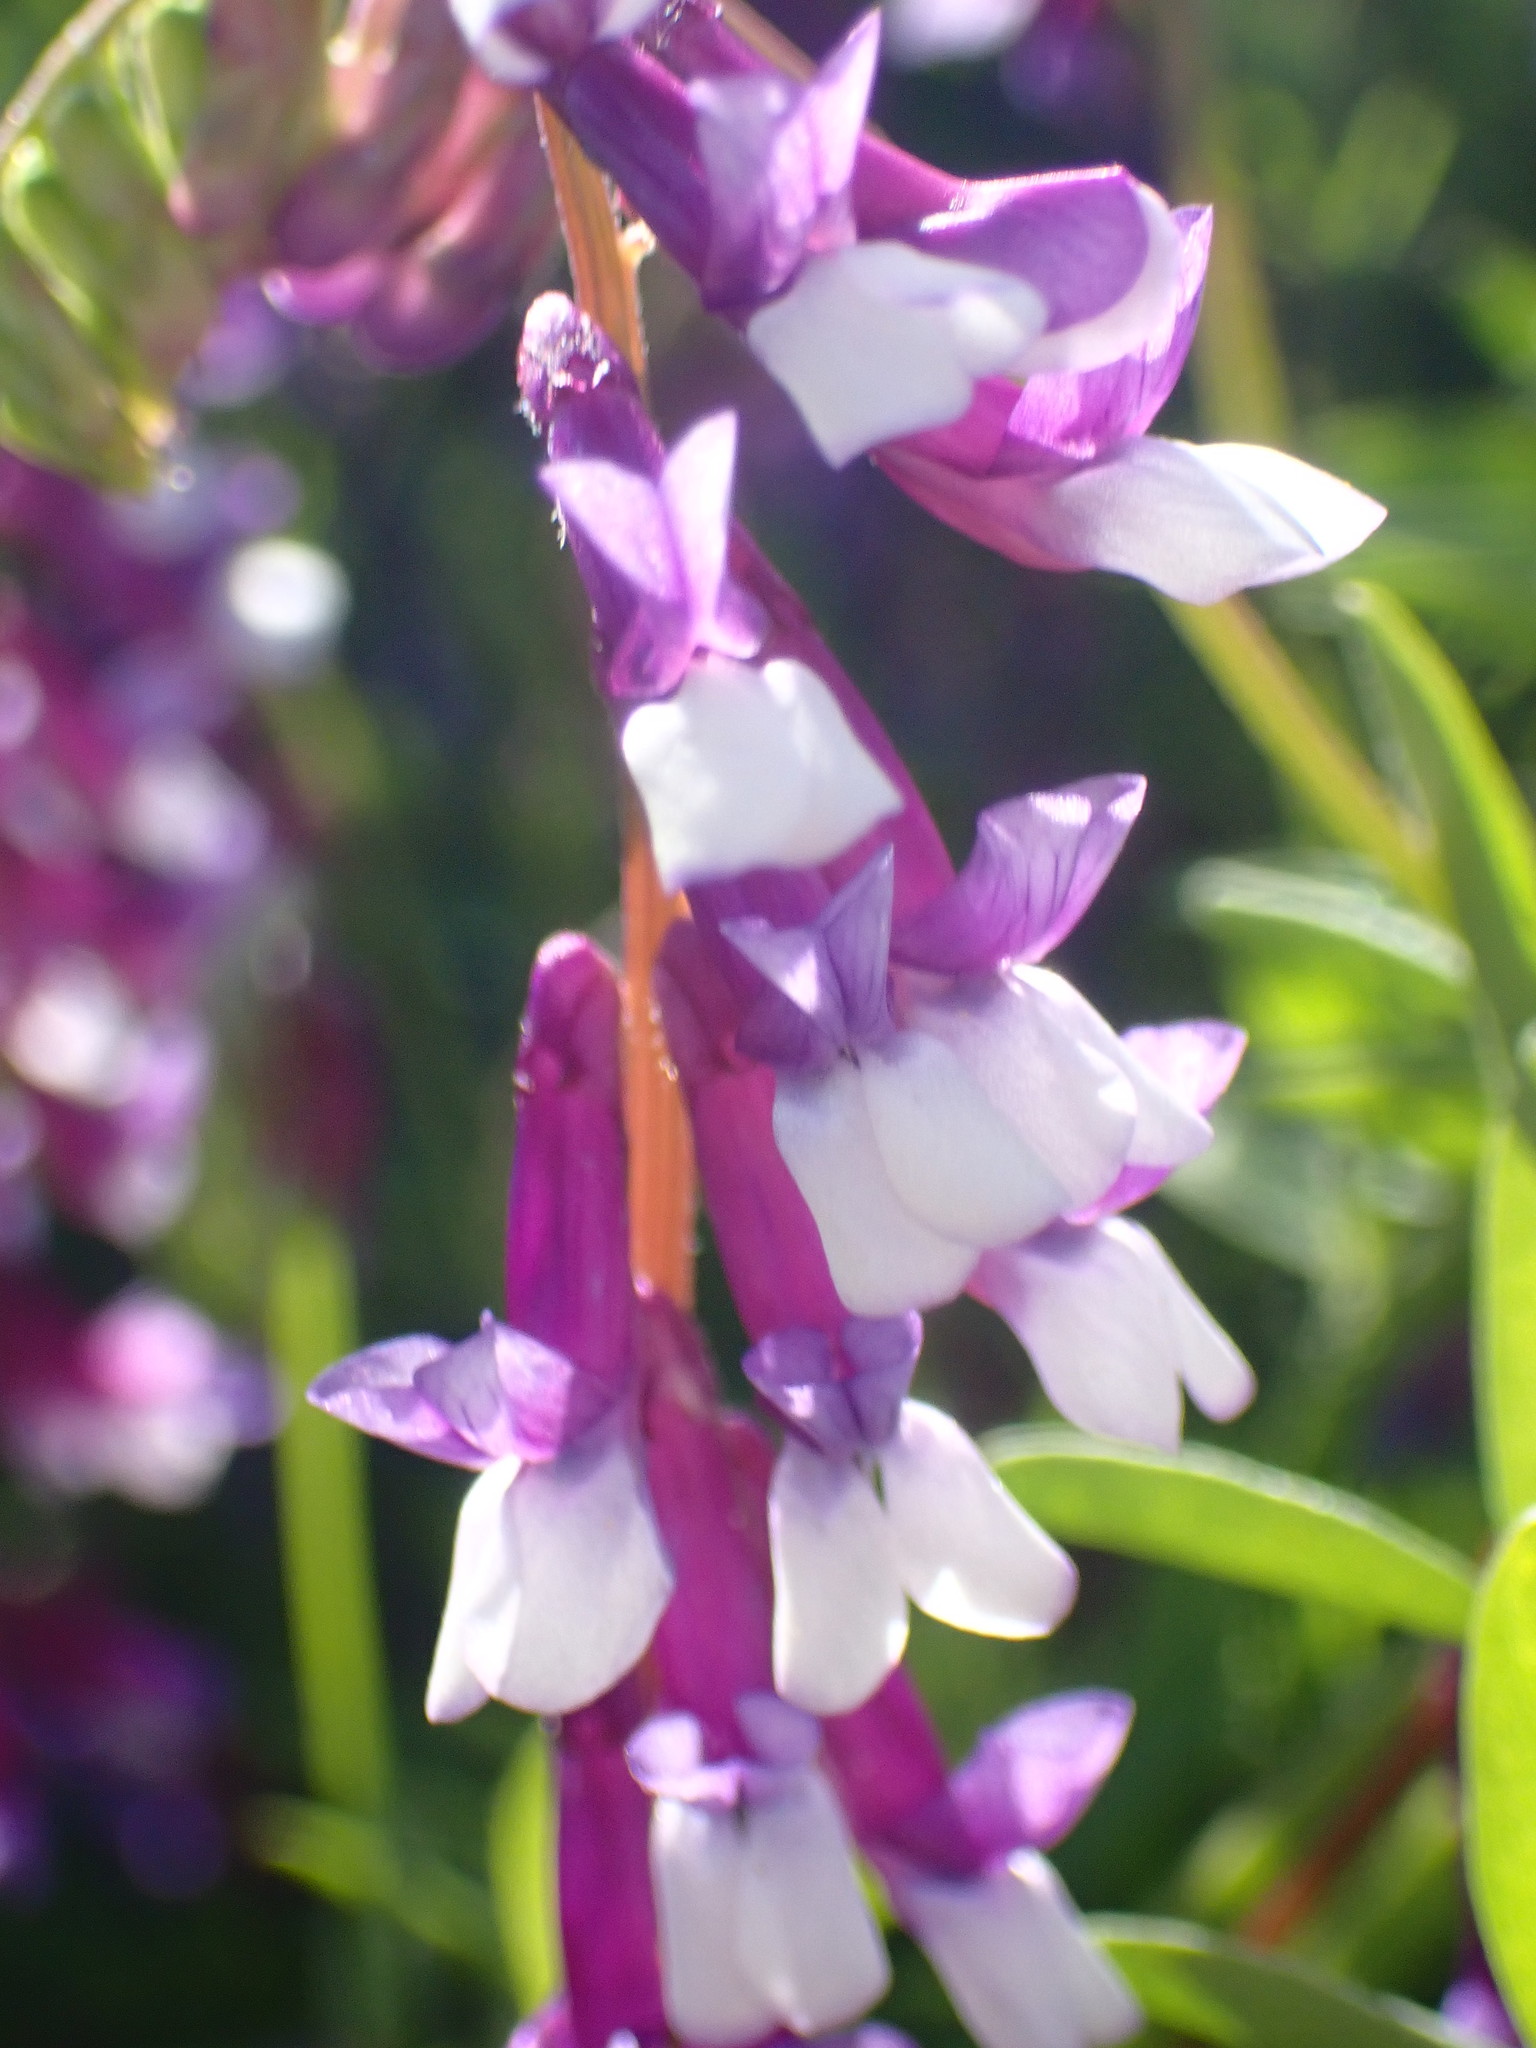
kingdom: Plantae
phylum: Tracheophyta
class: Magnoliopsida
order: Fabales
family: Fabaceae
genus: Vicia
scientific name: Vicia villosa
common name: Fodder vetch
